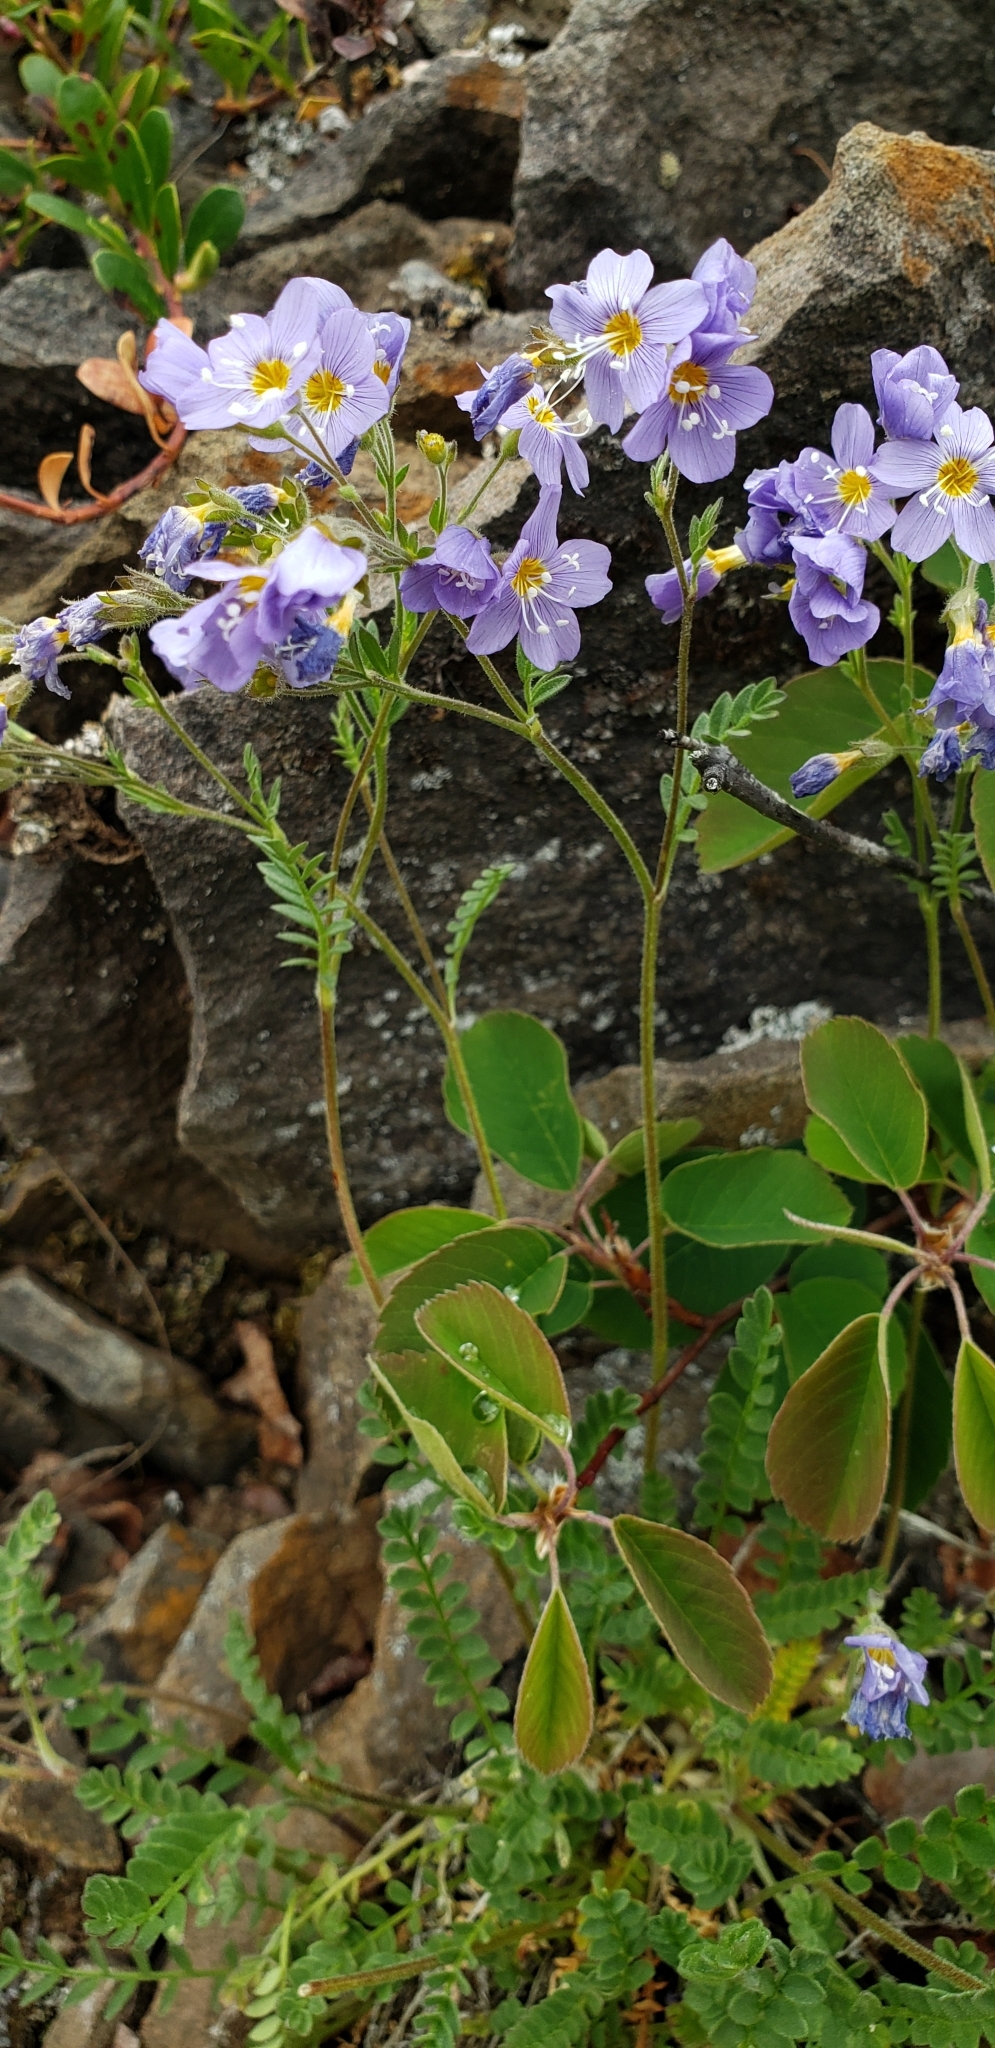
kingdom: Plantae
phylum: Tracheophyta
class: Magnoliopsida
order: Ericales
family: Polemoniaceae
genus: Polemonium
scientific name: Polemonium pulcherrimum
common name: Short jacob's-ladder
